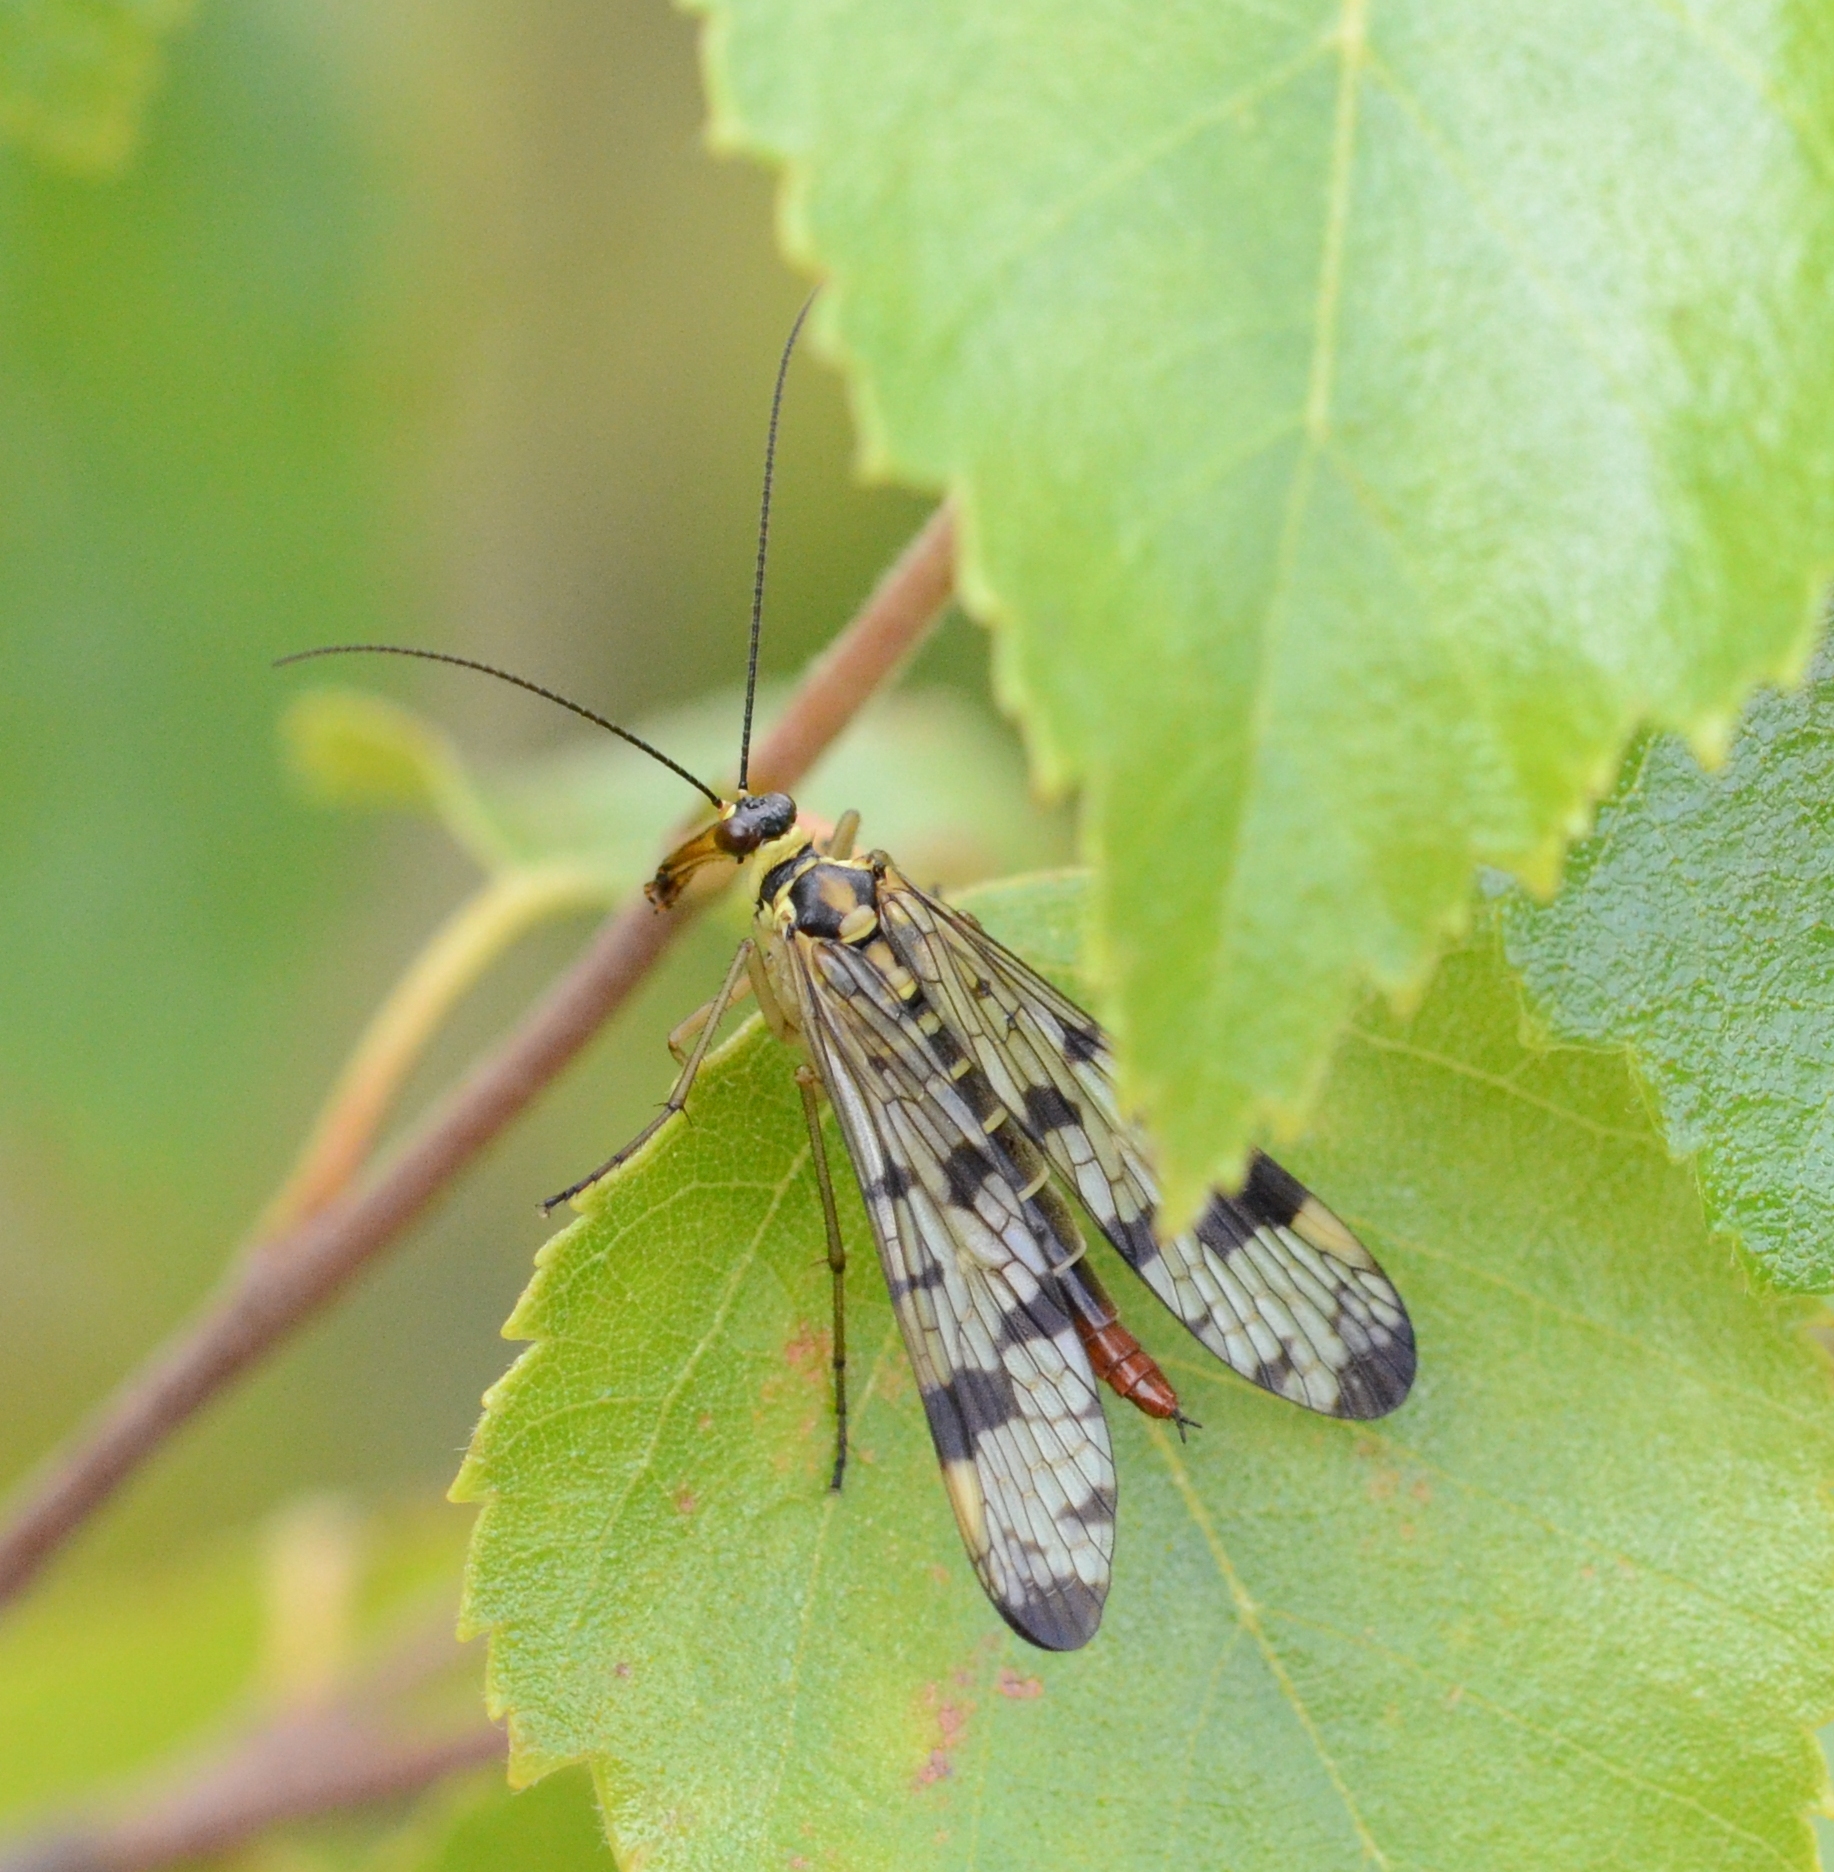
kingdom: Animalia
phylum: Arthropoda
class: Insecta
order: Mecoptera
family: Panorpidae
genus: Panorpa
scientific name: Panorpa communis
